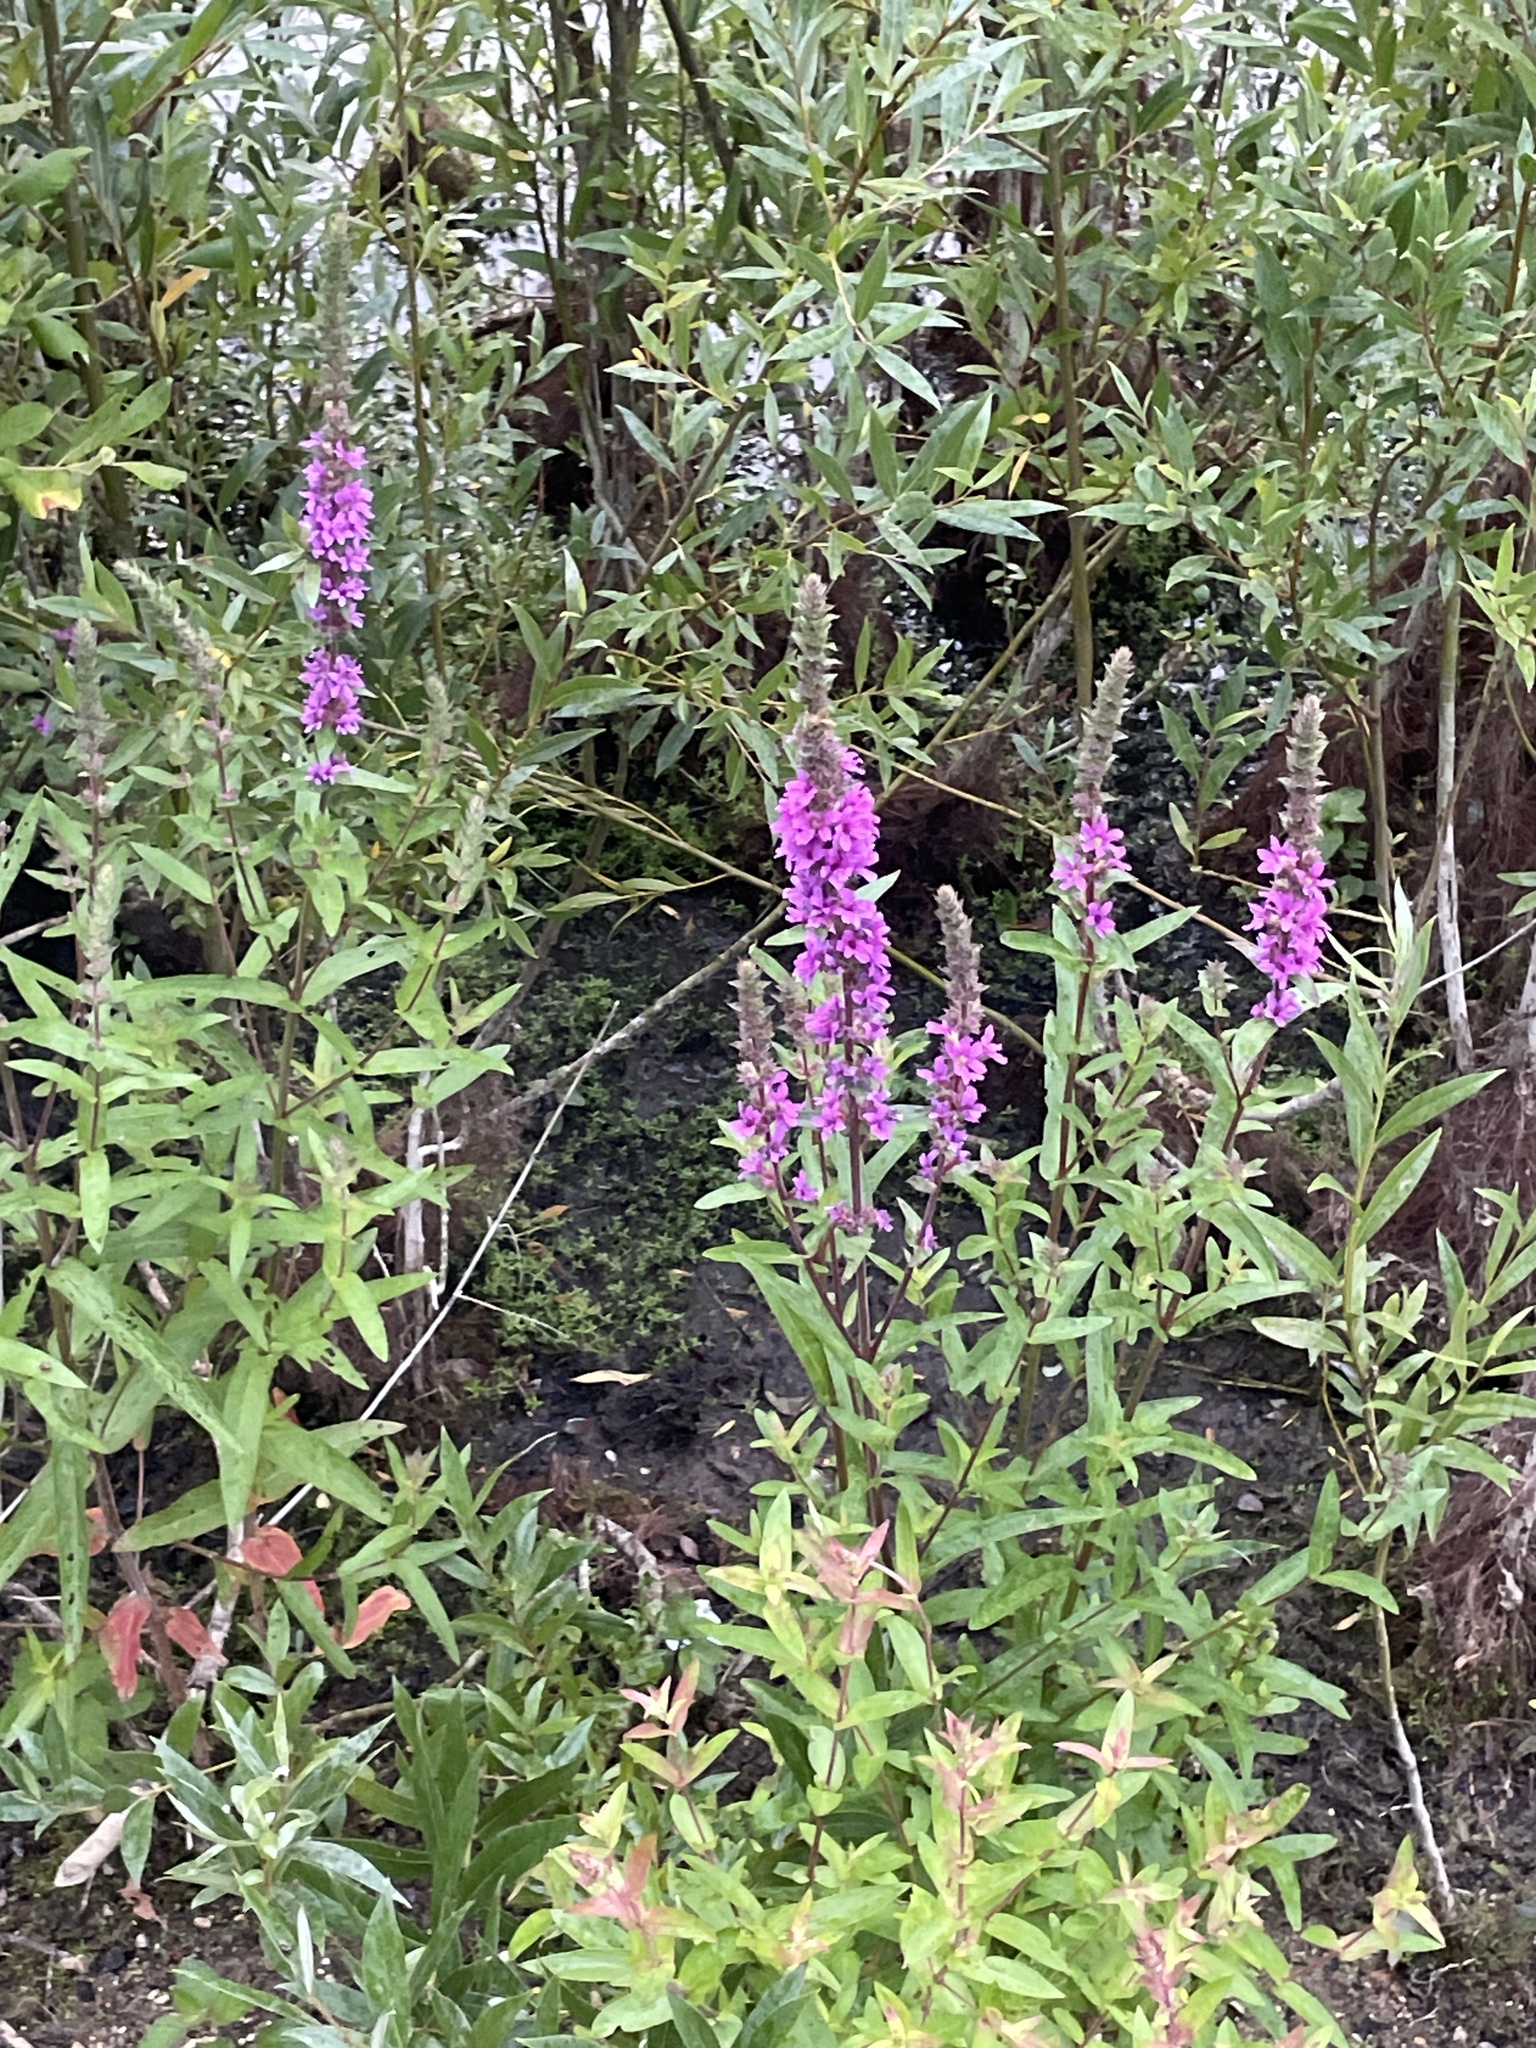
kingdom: Plantae
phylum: Tracheophyta
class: Magnoliopsida
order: Myrtales
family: Lythraceae
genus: Lythrum
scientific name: Lythrum salicaria
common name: Purple loosestrife
